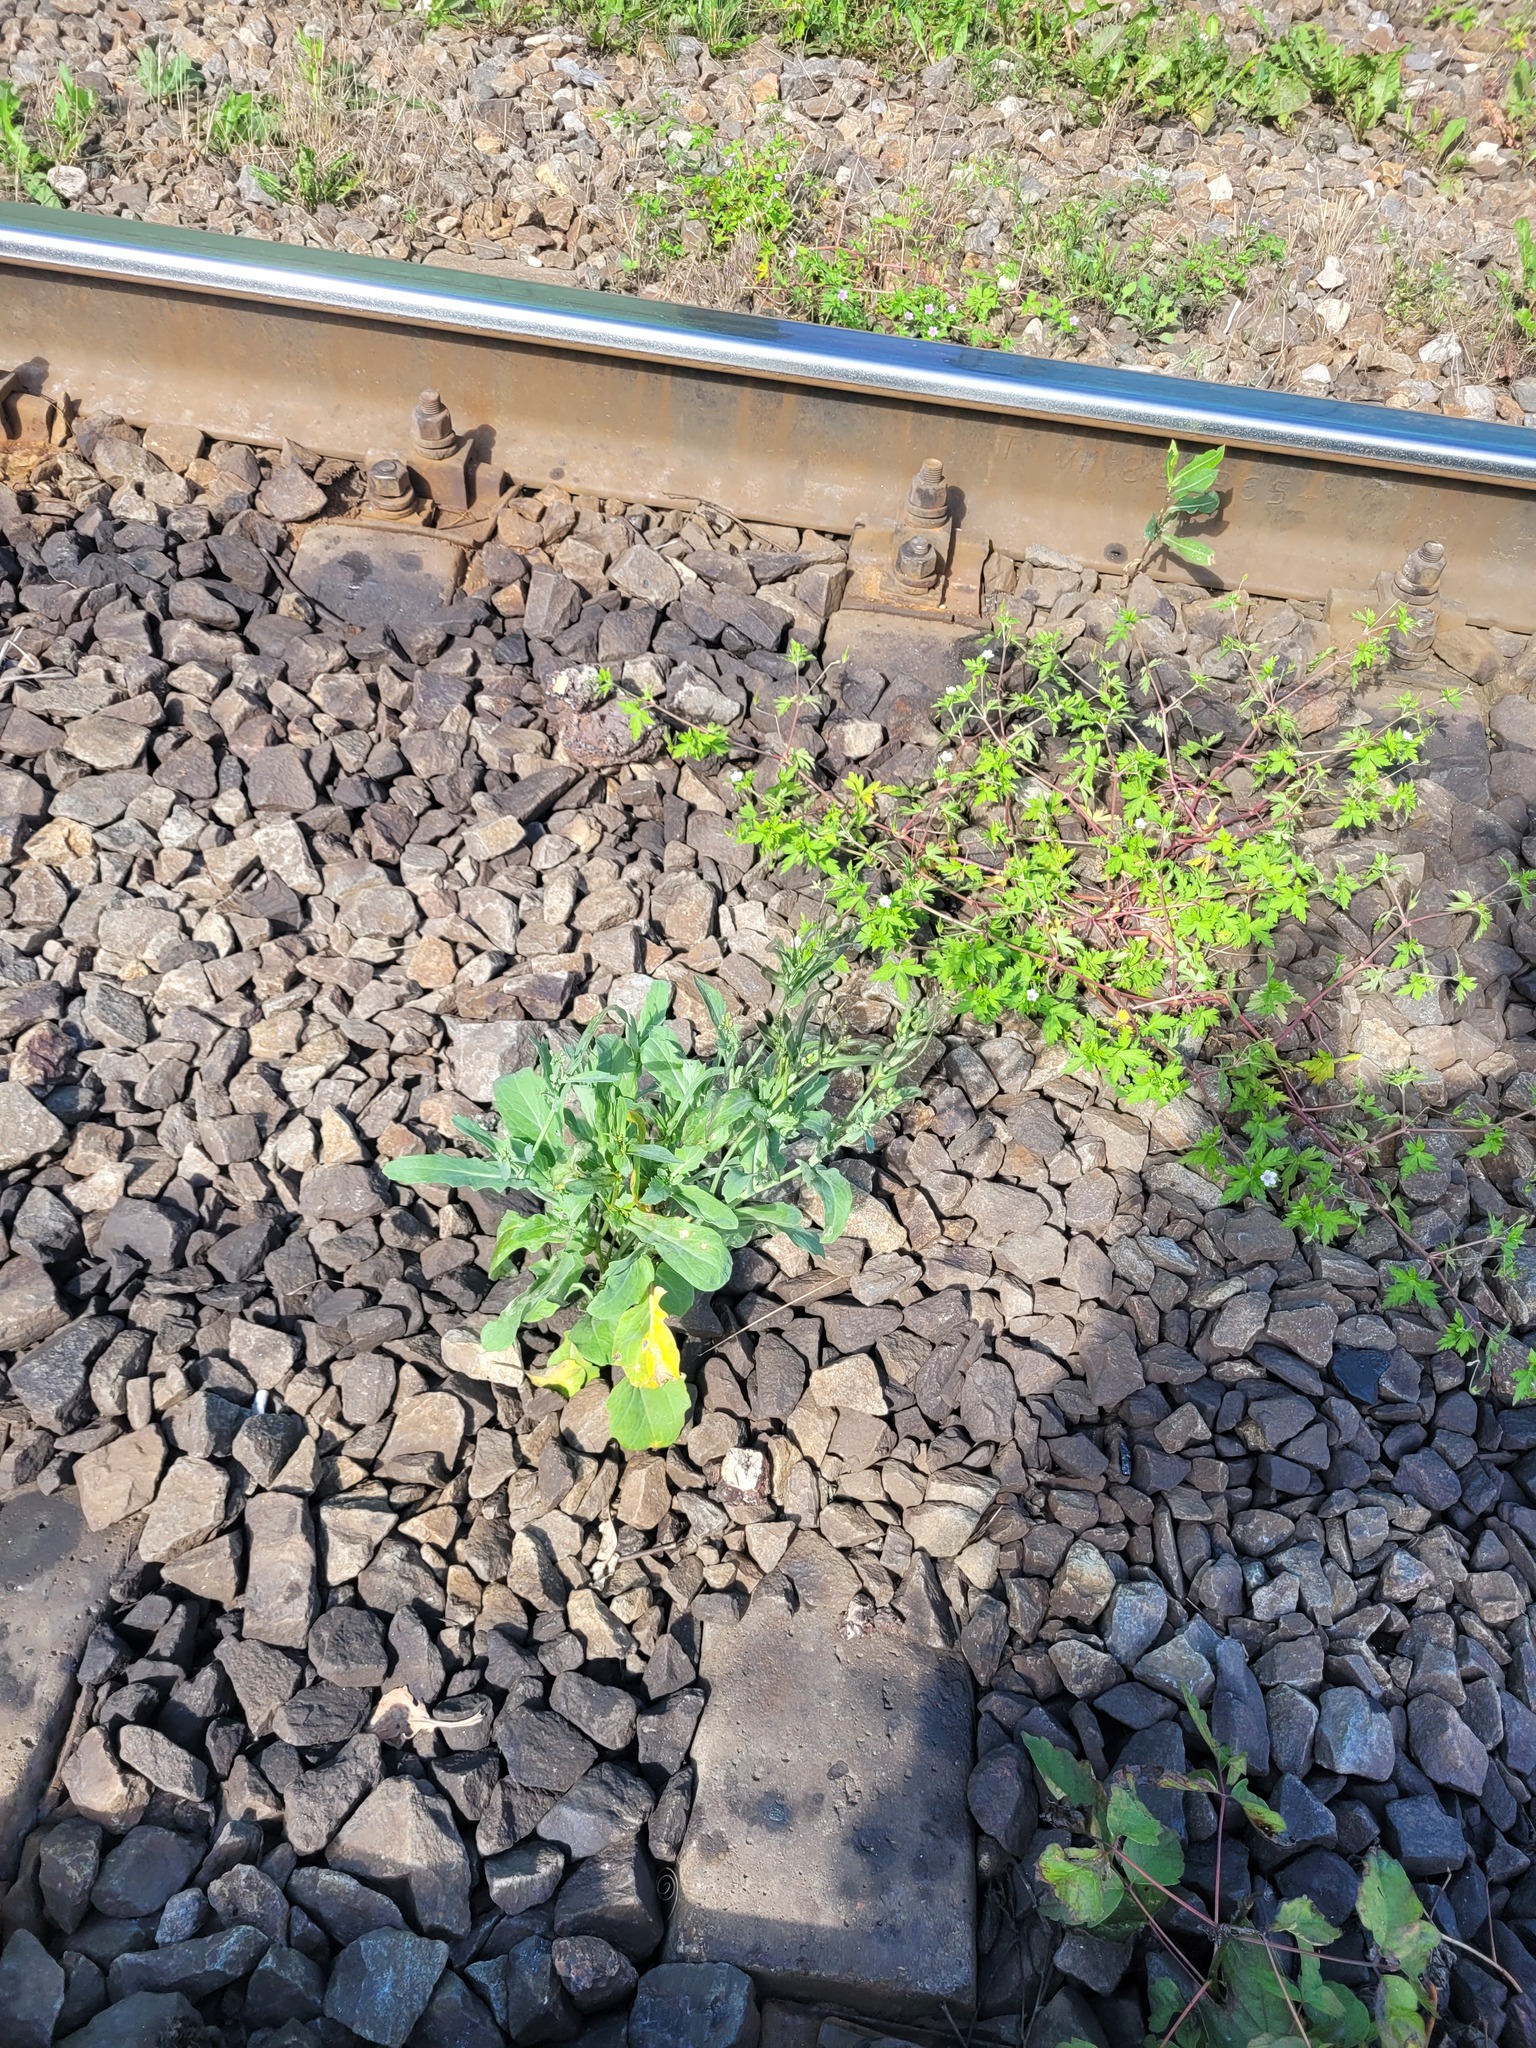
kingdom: Plantae
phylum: Tracheophyta
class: Magnoliopsida
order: Brassicales
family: Brassicaceae
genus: Brassica
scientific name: Brassica napus
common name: Rape
